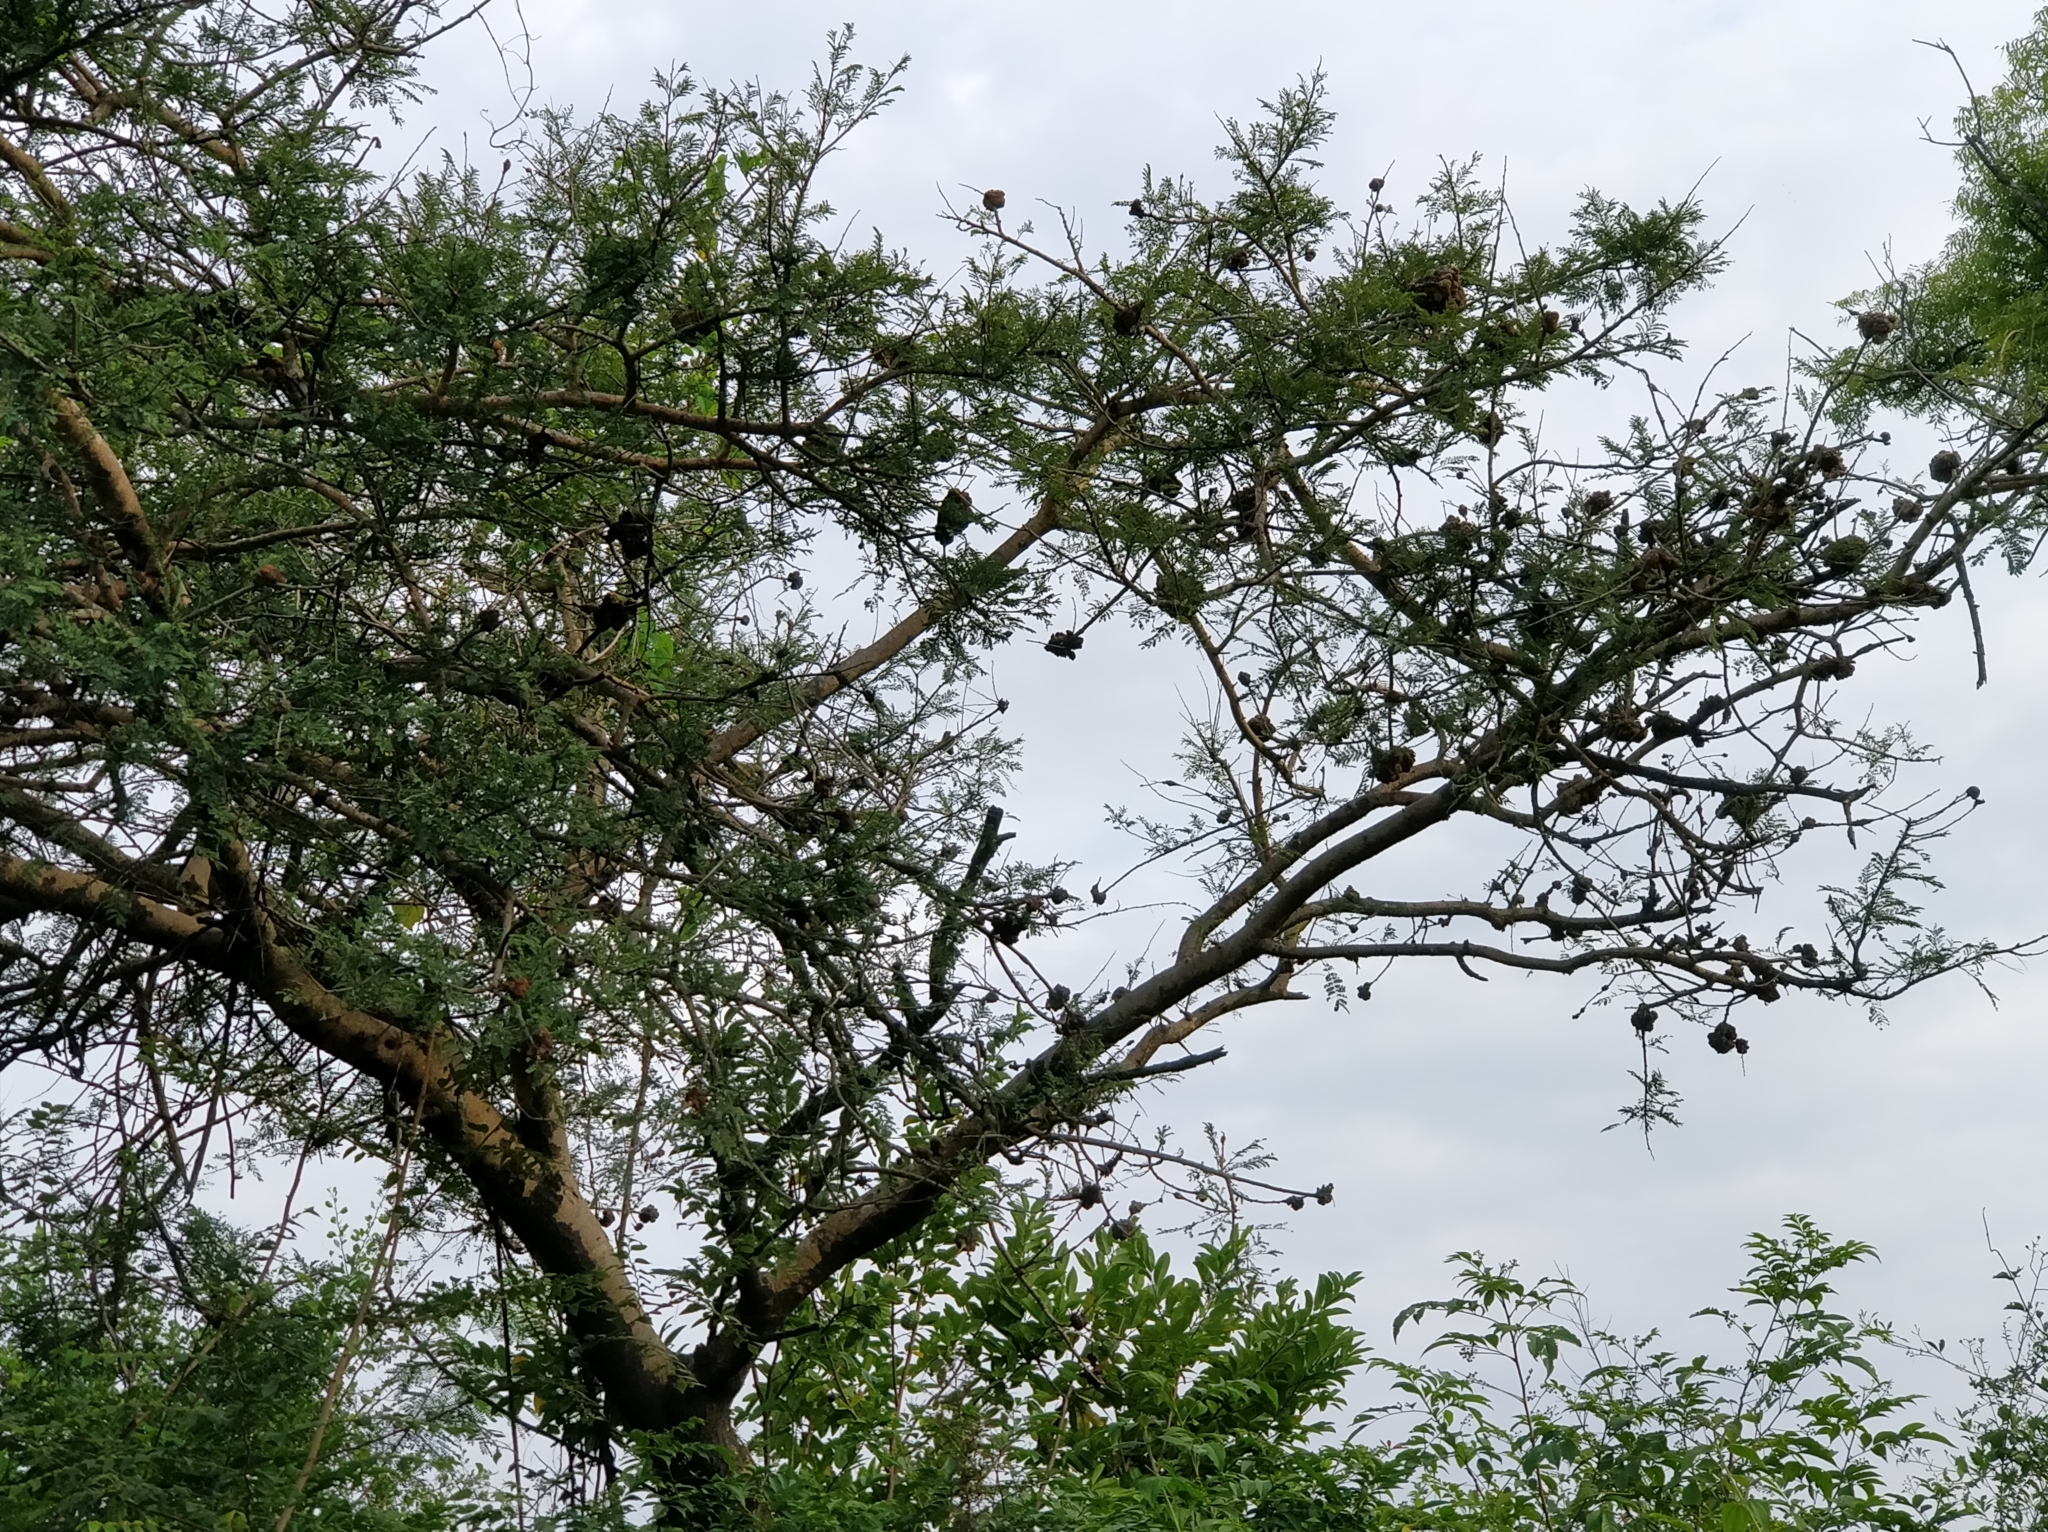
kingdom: Plantae
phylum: Tracheophyta
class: Magnoliopsida
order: Fabales
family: Fabaceae
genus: Vachellia
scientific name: Vachellia leucophloea
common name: Distiller's acacia
